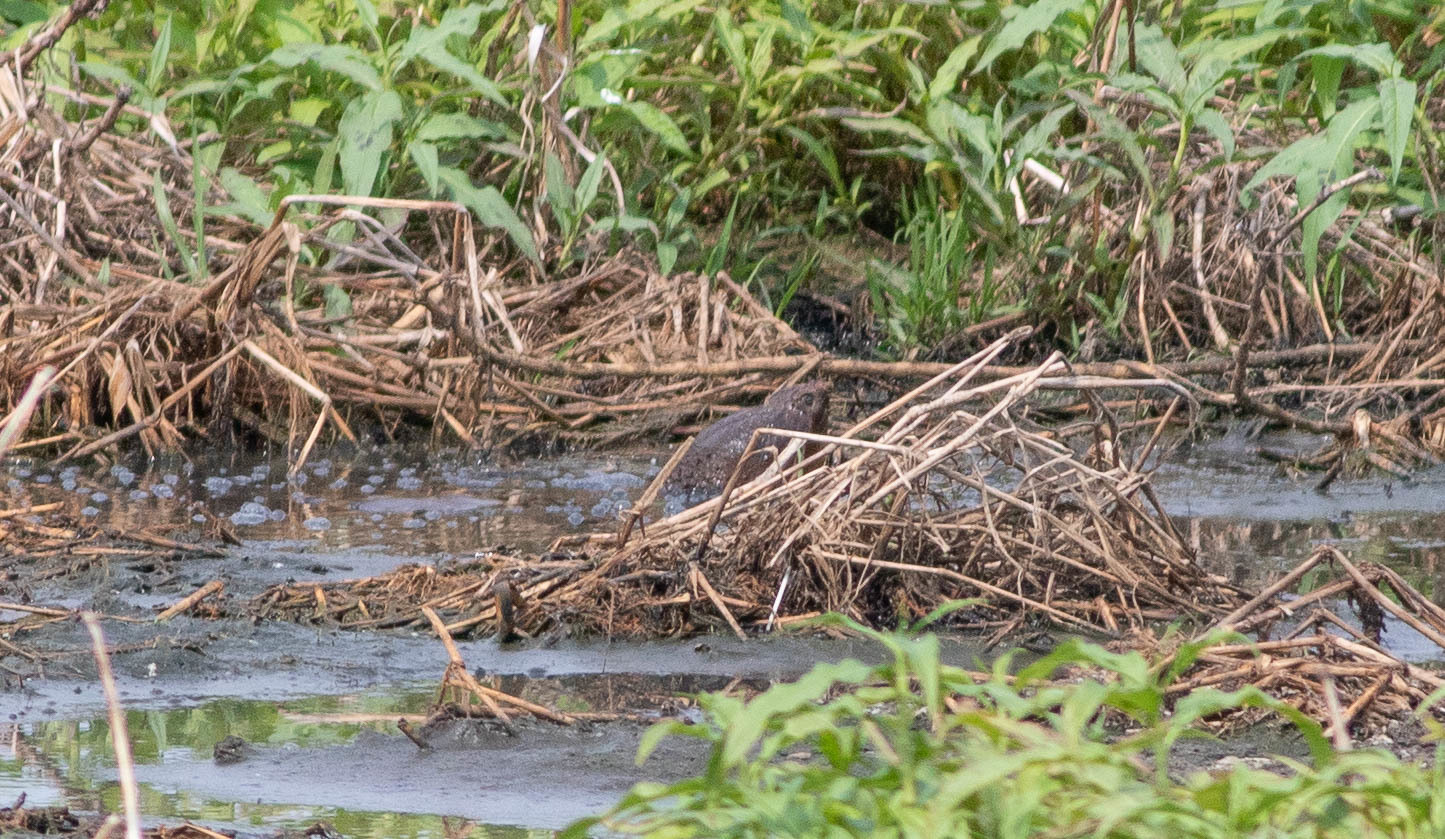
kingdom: Animalia
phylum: Chordata
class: Testudines
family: Chelydridae
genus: Chelydra
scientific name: Chelydra serpentina
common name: Common snapping turtle
